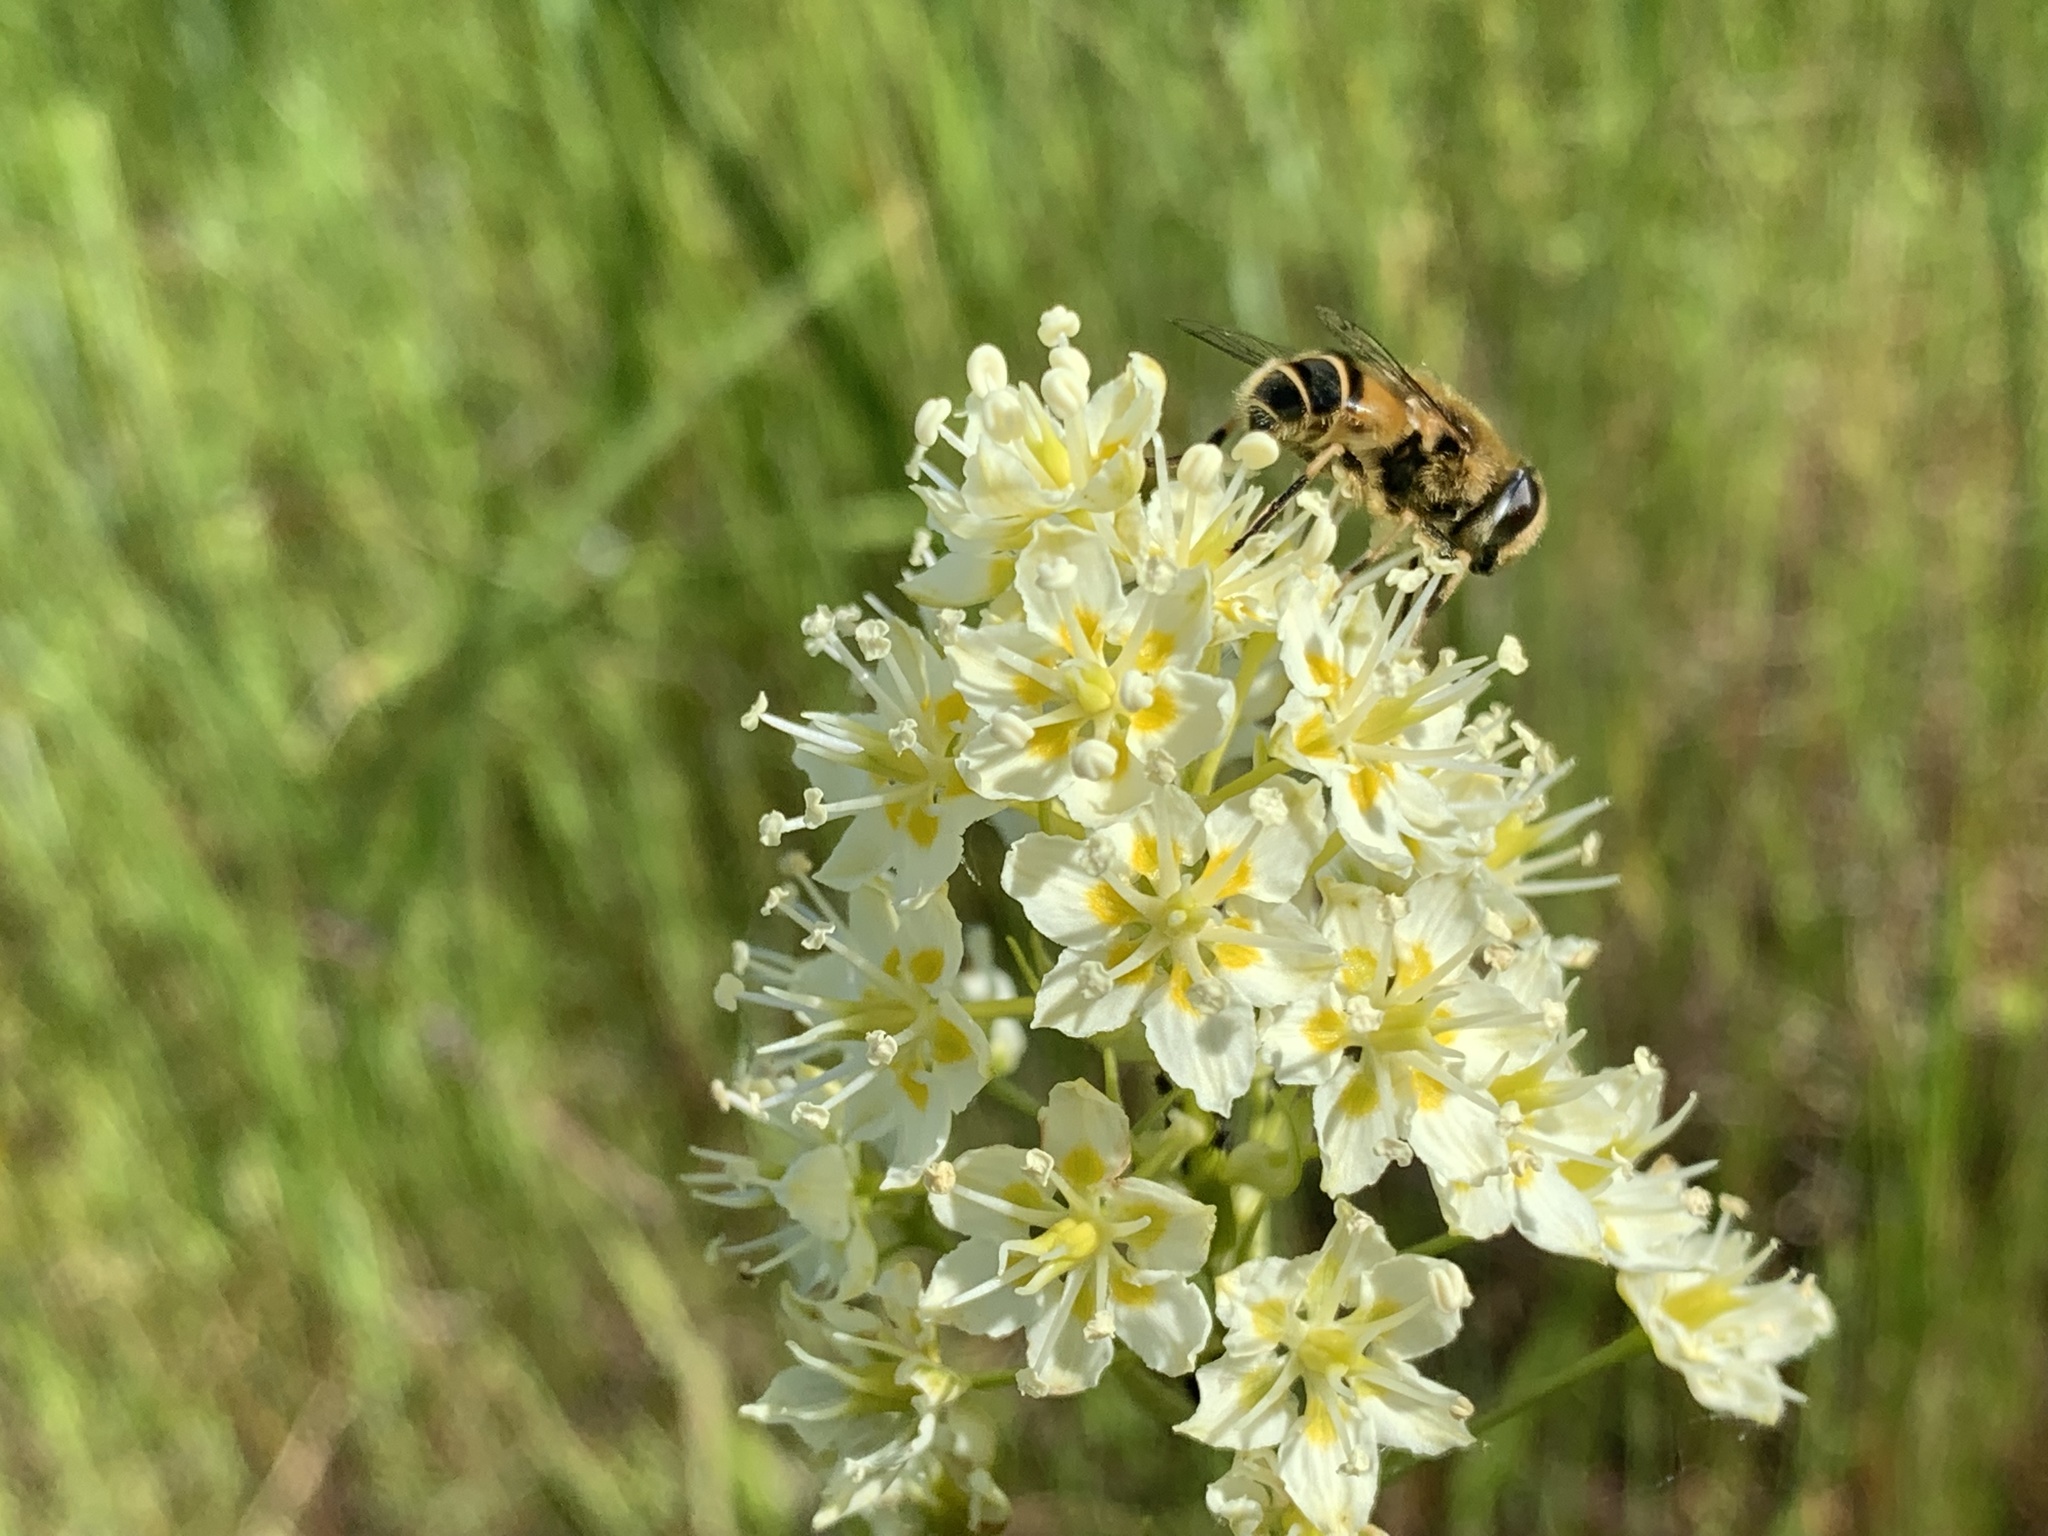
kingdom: Animalia
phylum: Arthropoda
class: Insecta
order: Diptera
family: Syrphidae
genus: Eristalis
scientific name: Eristalis hirta
